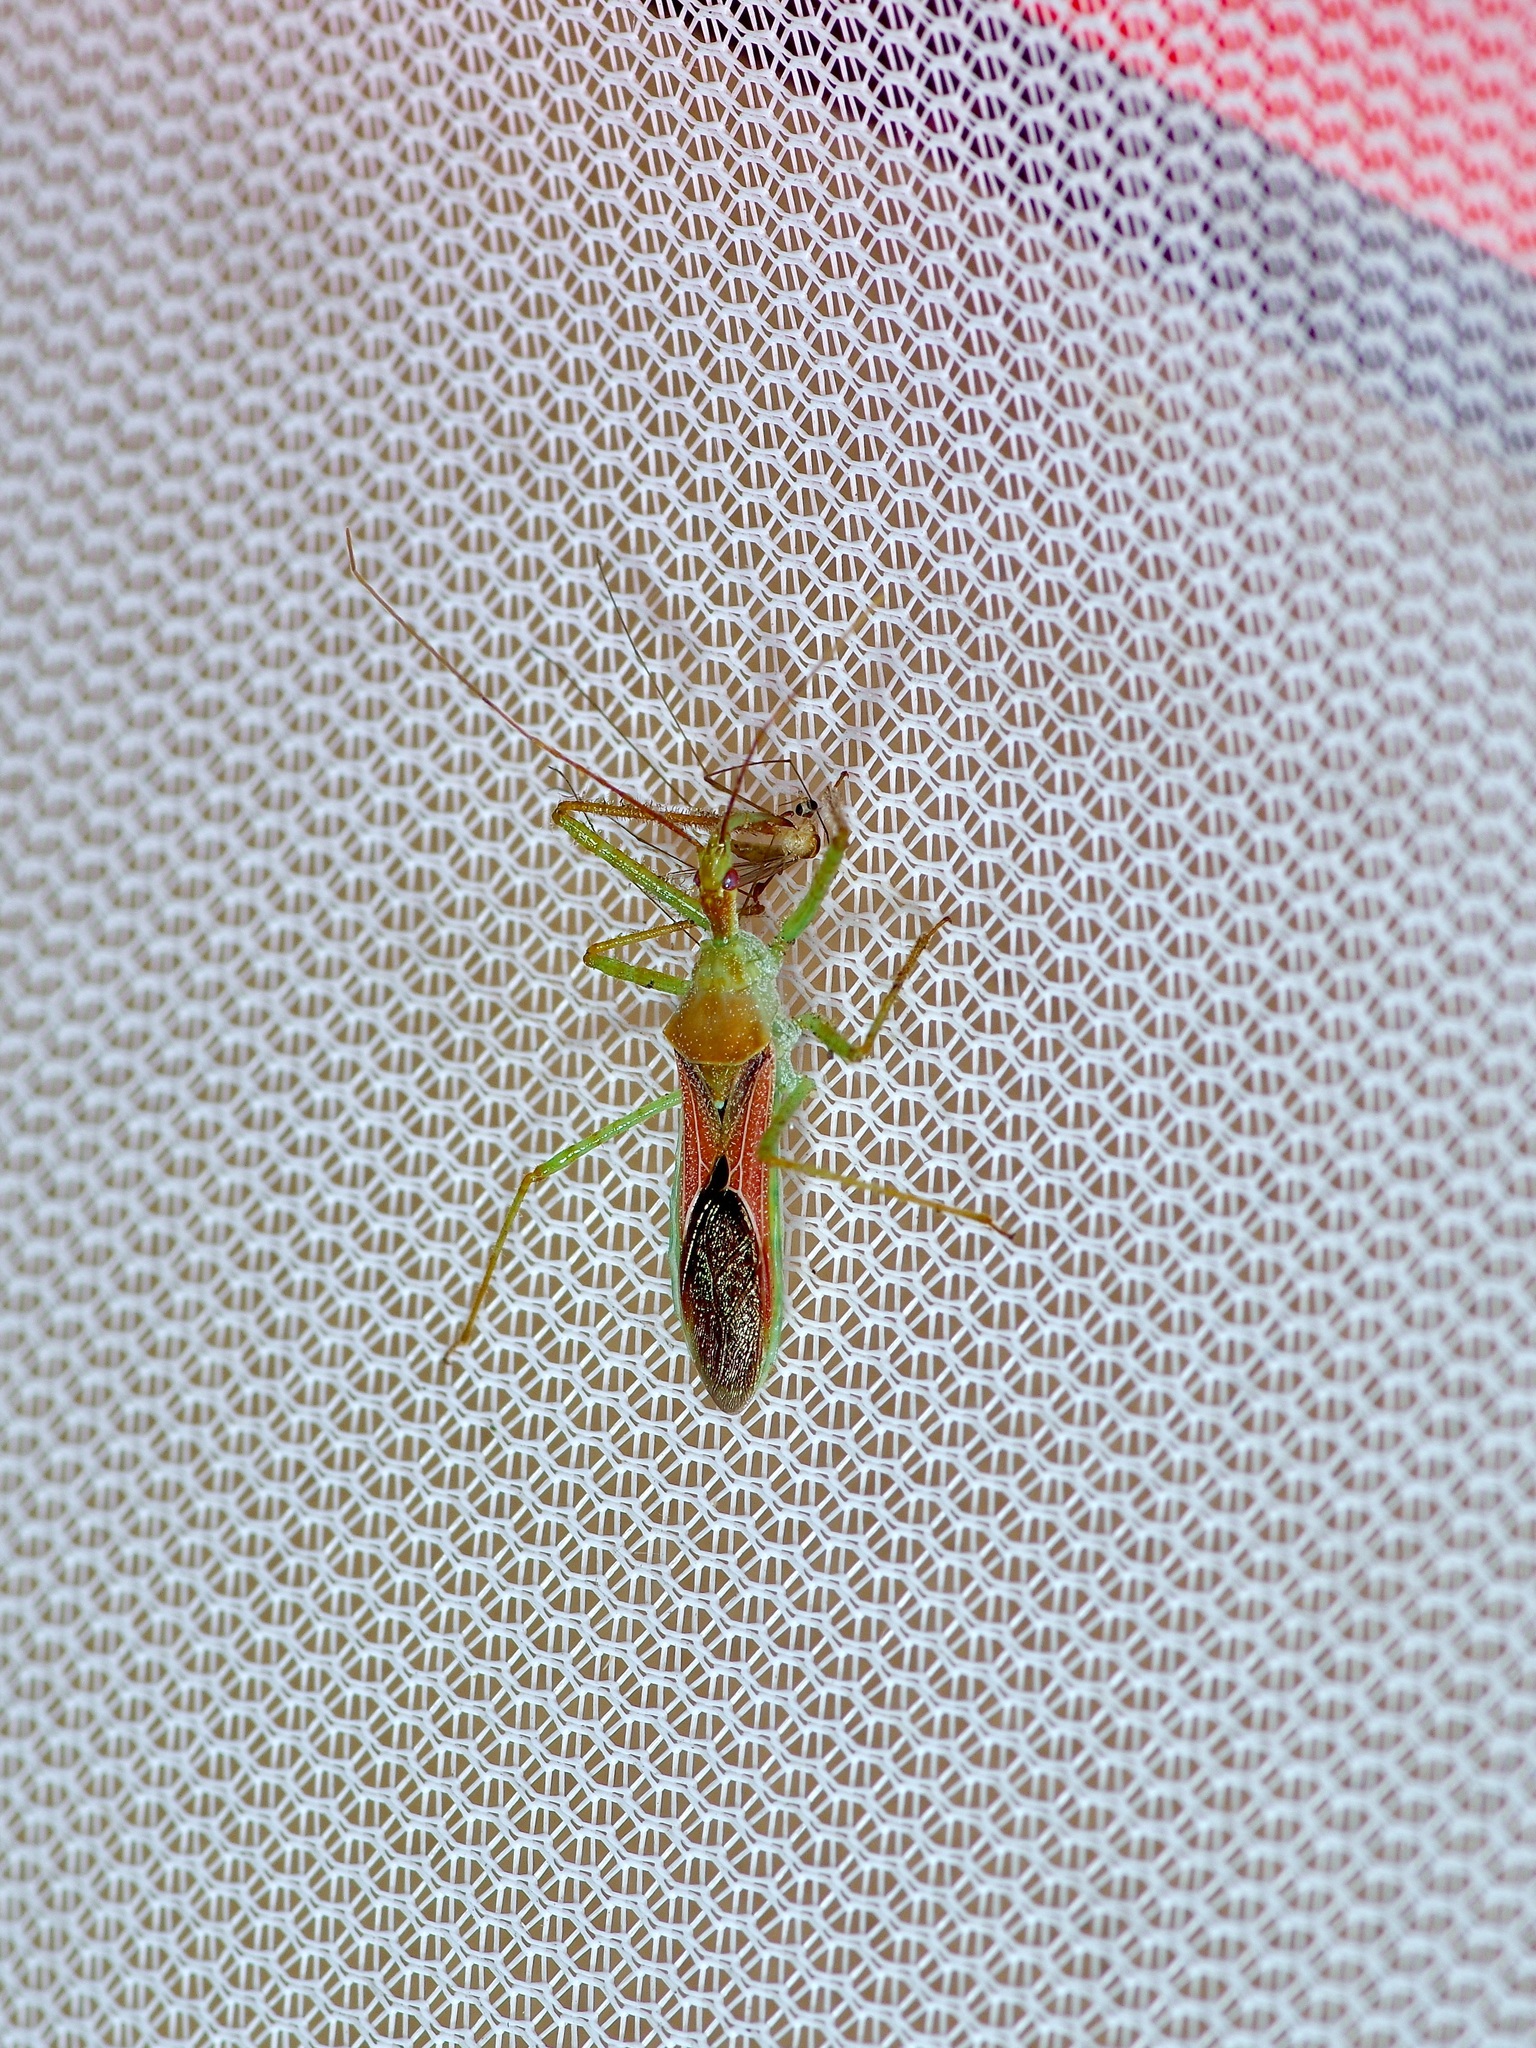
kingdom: Animalia
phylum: Arthropoda
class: Insecta
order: Hemiptera
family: Reduviidae
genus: Zelus
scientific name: Zelus renardii
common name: Assassin bug
